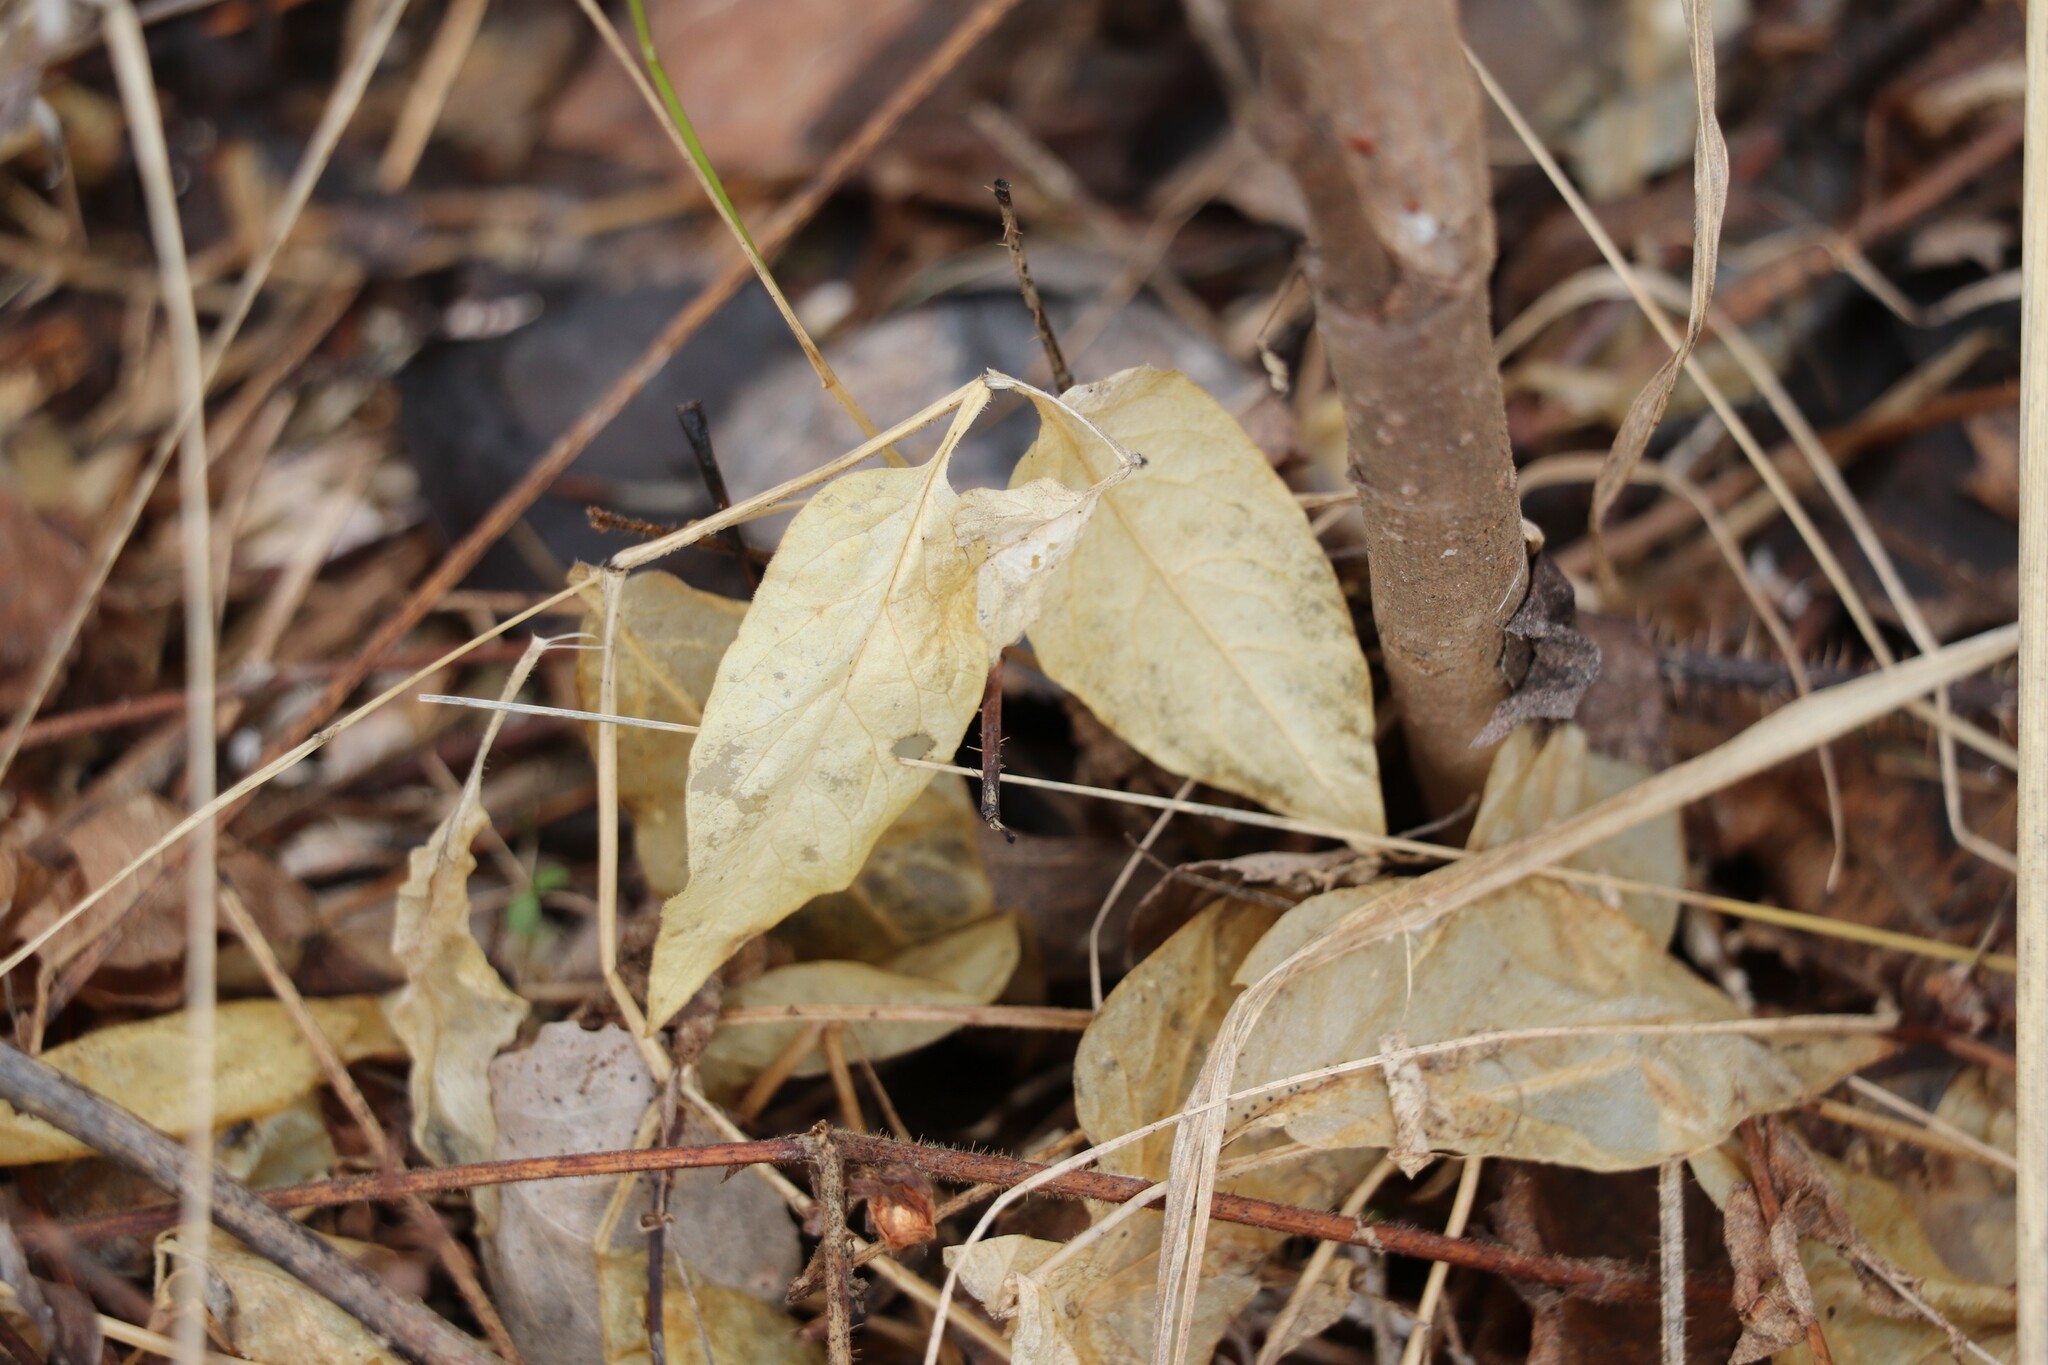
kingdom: Plantae
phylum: Tracheophyta
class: Magnoliopsida
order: Caryophyllales
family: Caryophyllaceae
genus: Stellaria
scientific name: Stellaria bungeana
